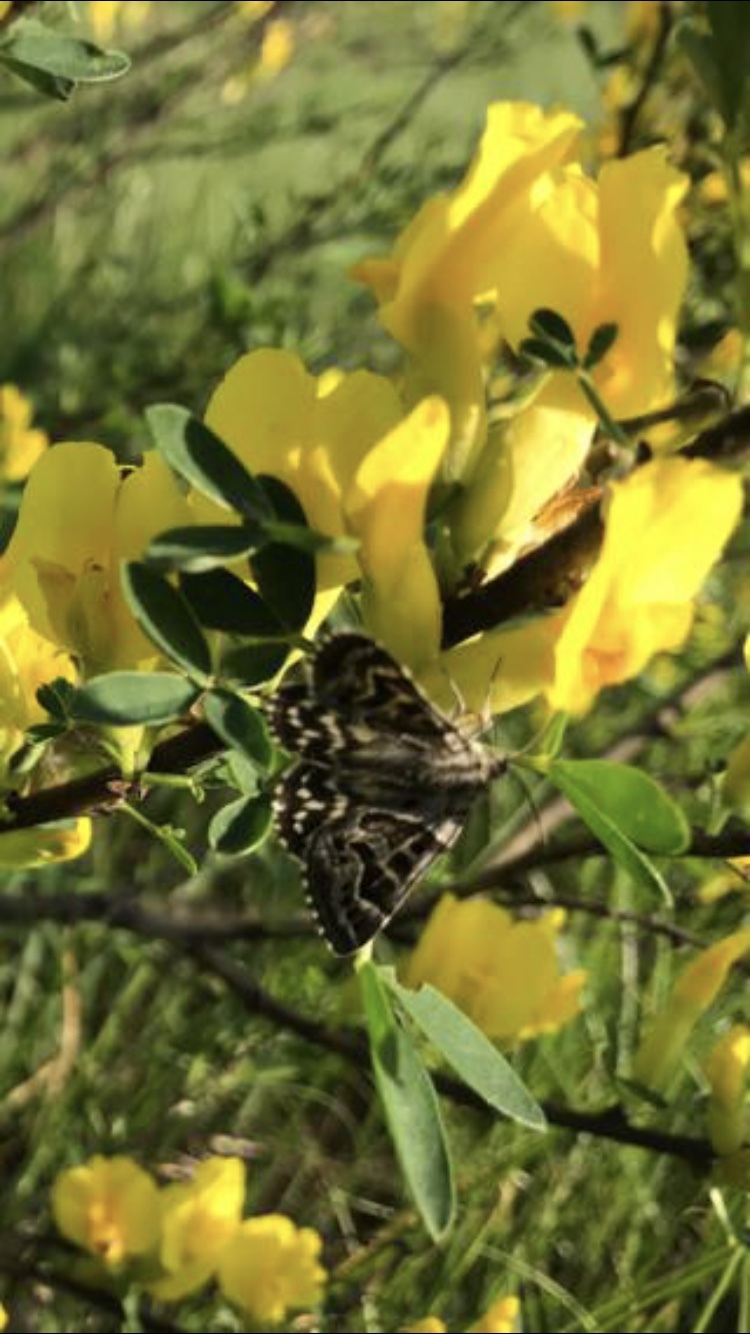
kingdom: Animalia
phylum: Arthropoda
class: Insecta
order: Lepidoptera
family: Erebidae
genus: Callistege
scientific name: Callistege mi
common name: Mother shipton
